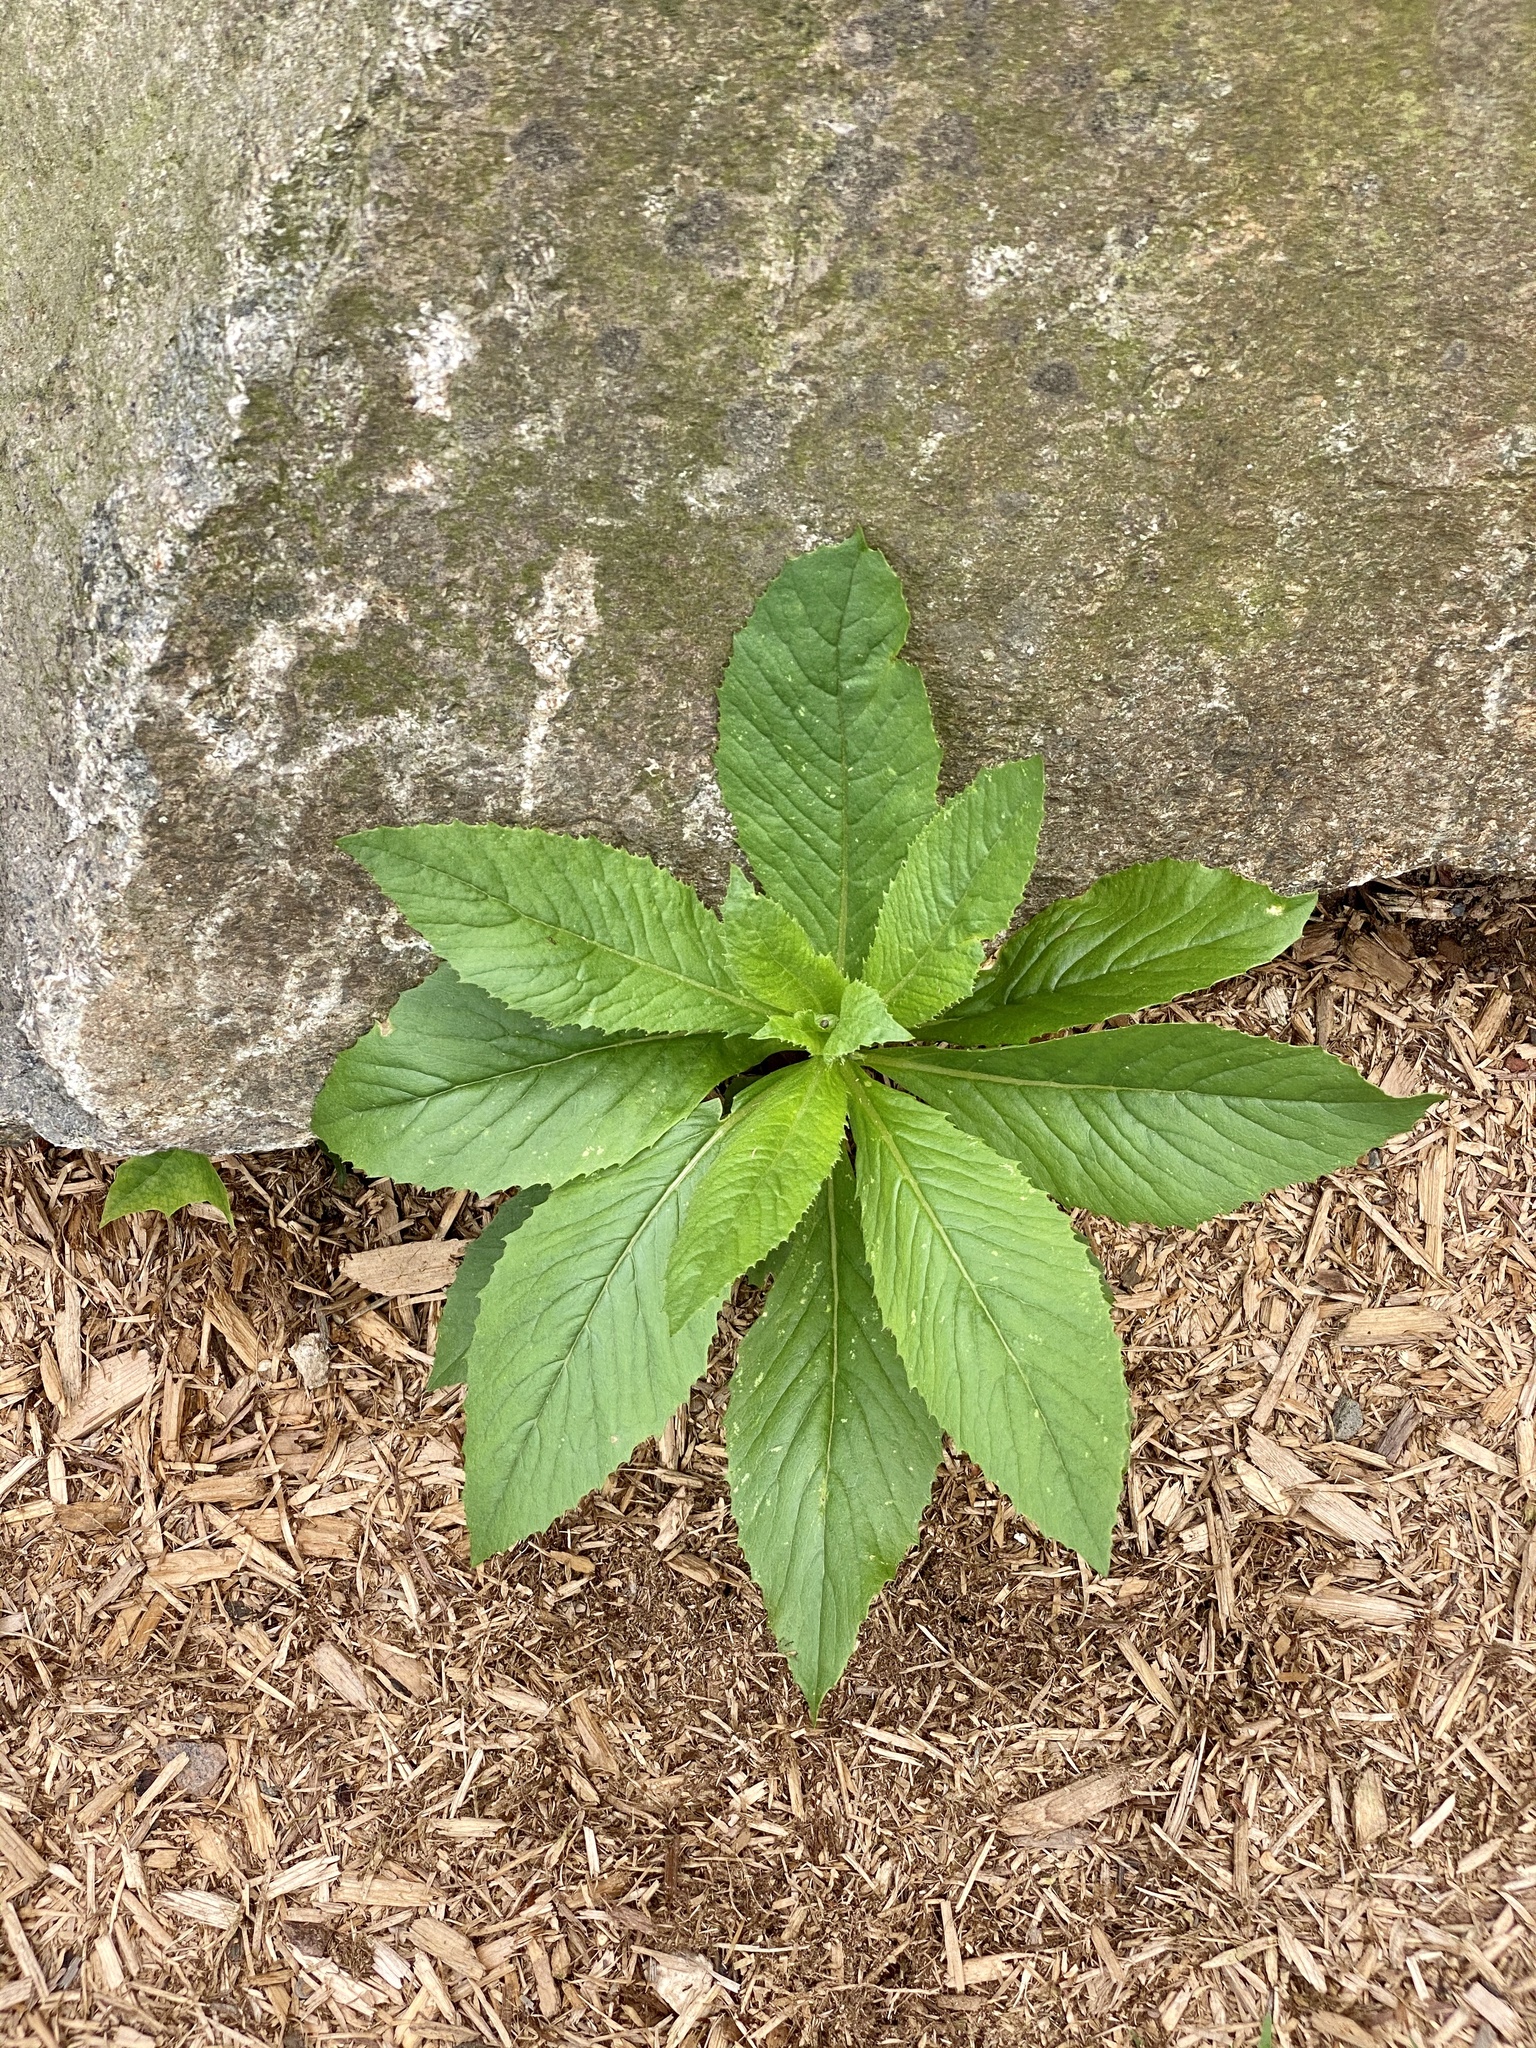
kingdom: Plantae
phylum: Tracheophyta
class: Magnoliopsida
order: Asterales
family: Asteraceae
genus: Erechtites
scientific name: Erechtites hieraciifolius
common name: American burnweed
